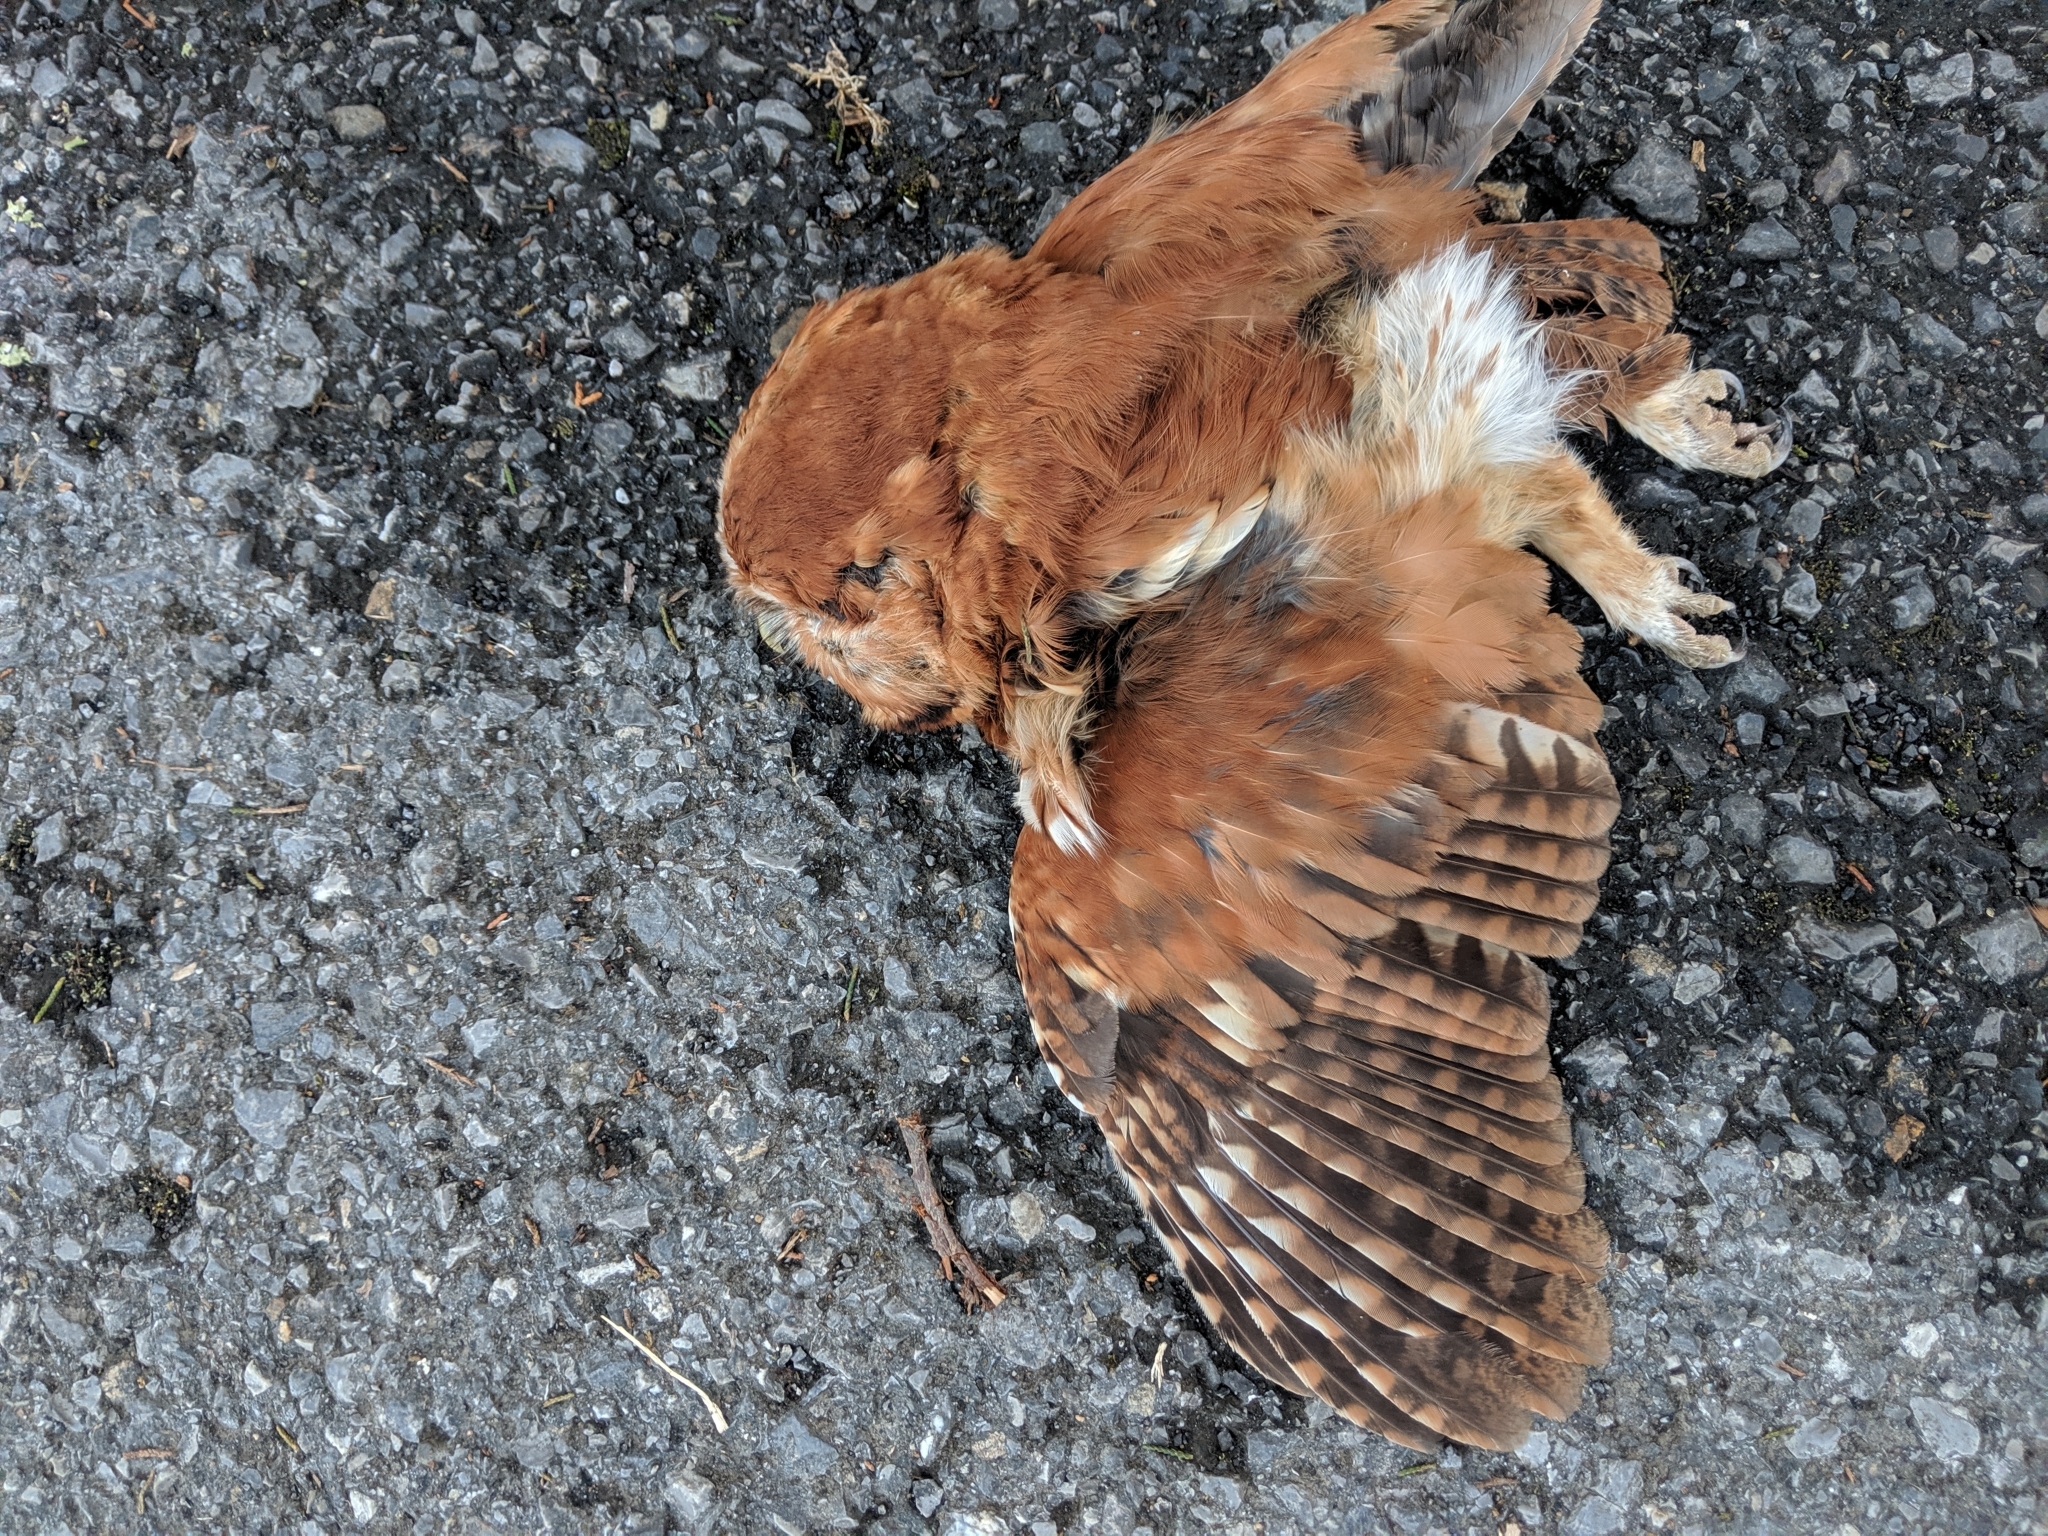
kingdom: Animalia
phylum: Chordata
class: Aves
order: Strigiformes
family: Strigidae
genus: Megascops
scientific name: Megascops asio
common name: Eastern screech-owl
